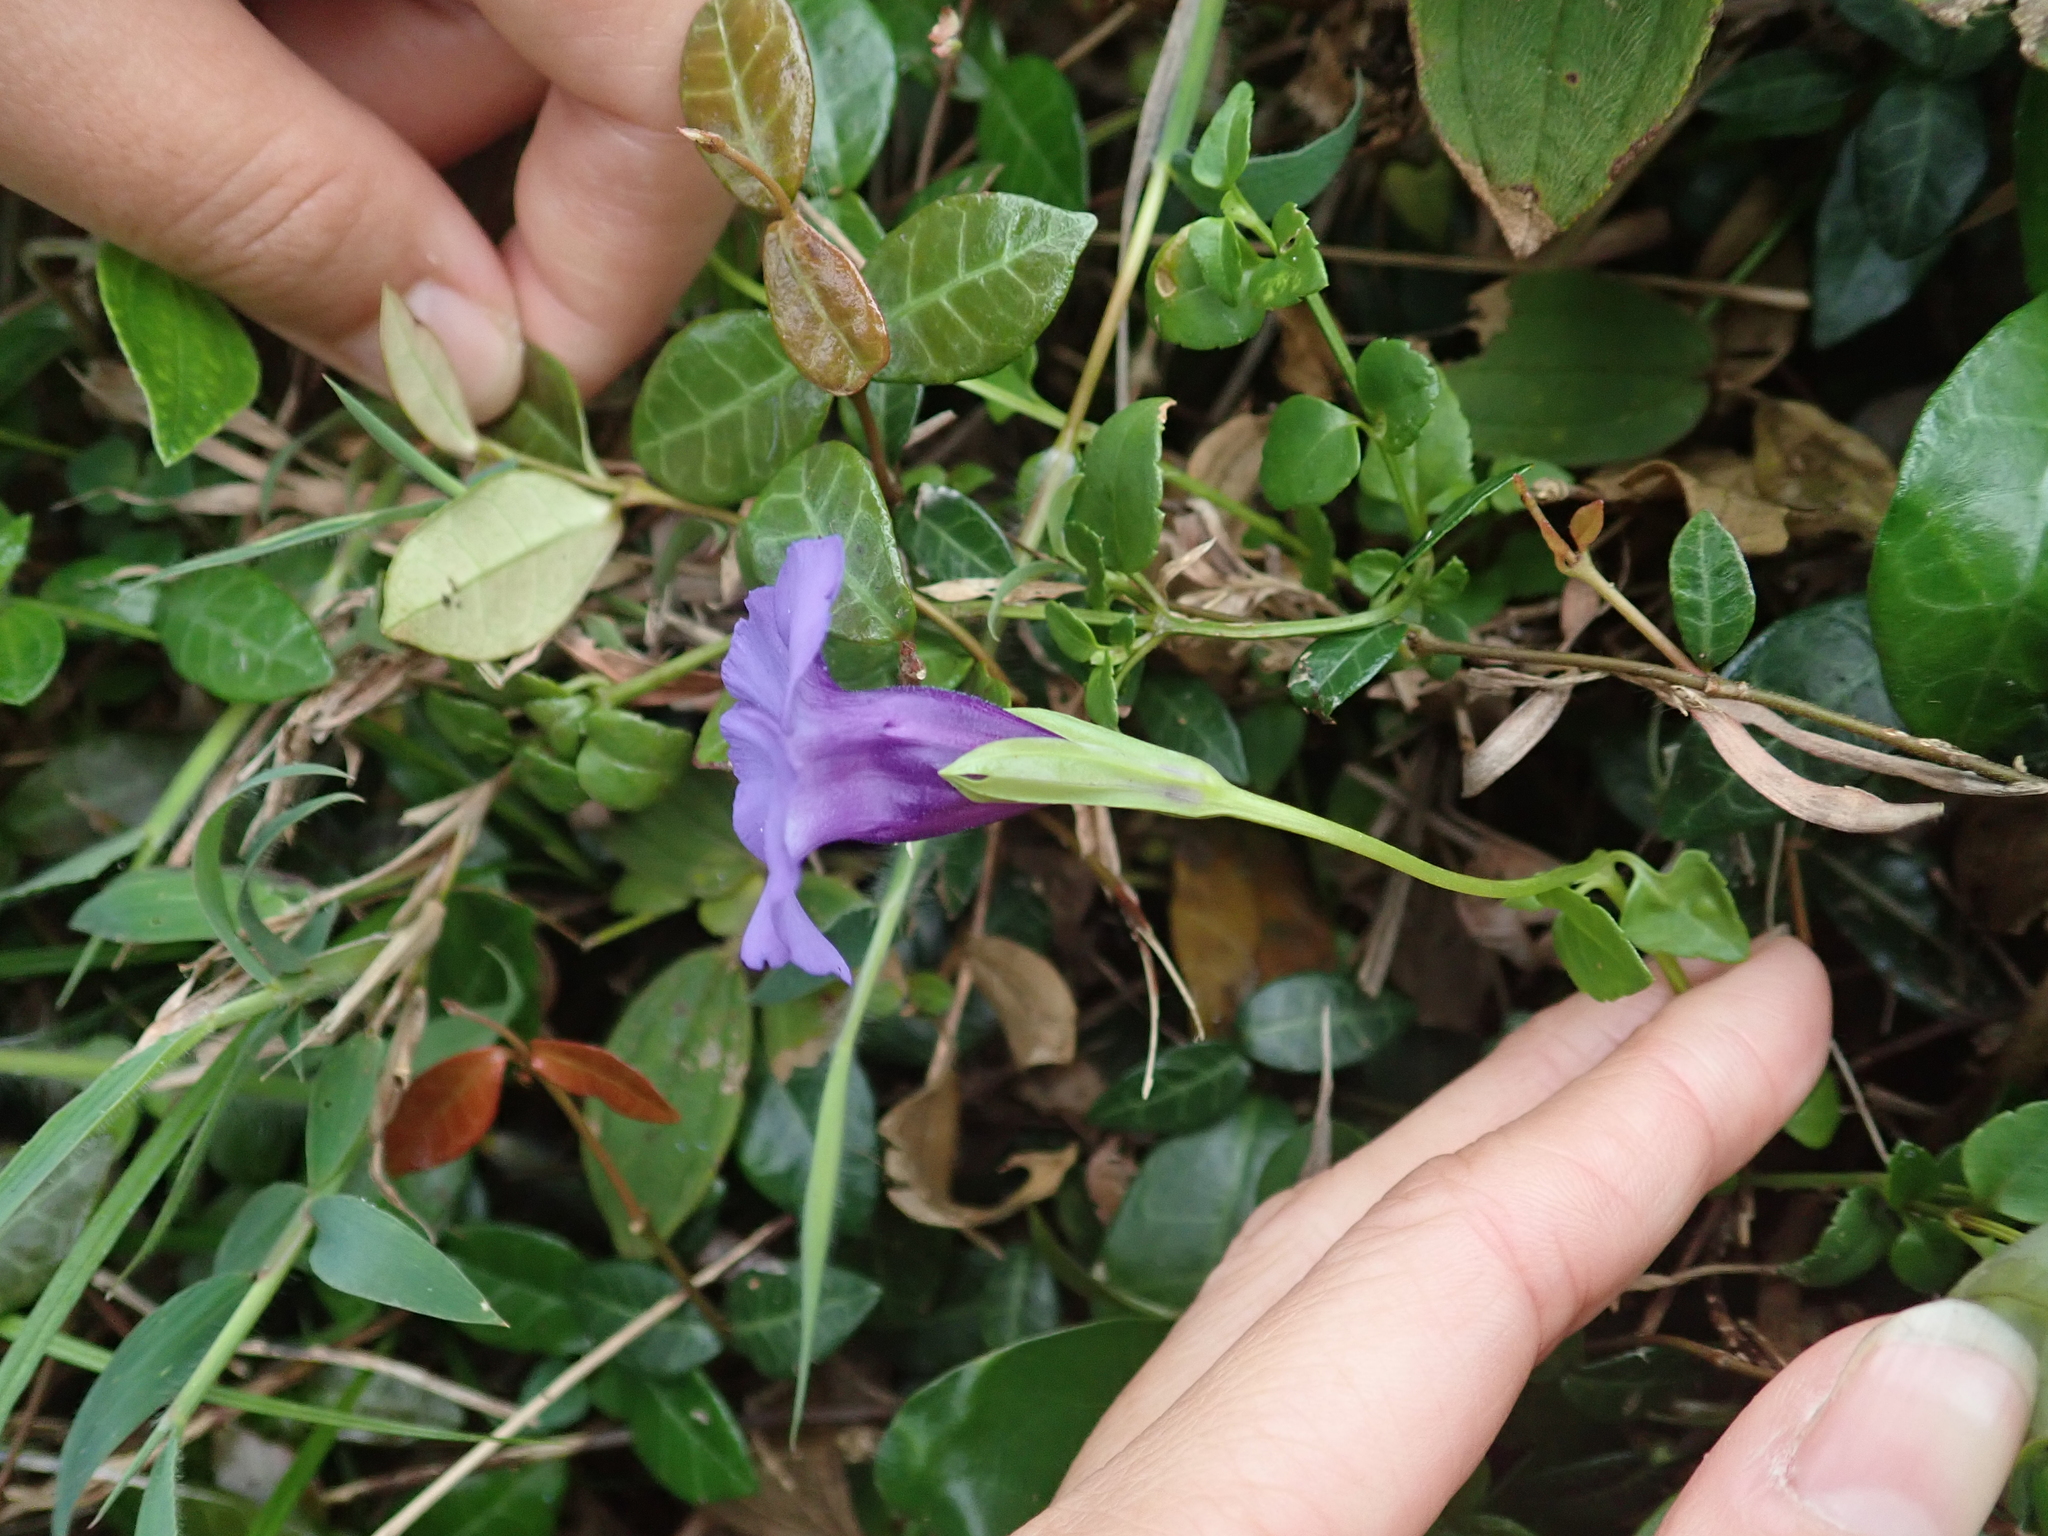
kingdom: Plantae
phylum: Tracheophyta
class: Magnoliopsida
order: Lamiales
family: Linderniaceae
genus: Torenia
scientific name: Torenia concolor
